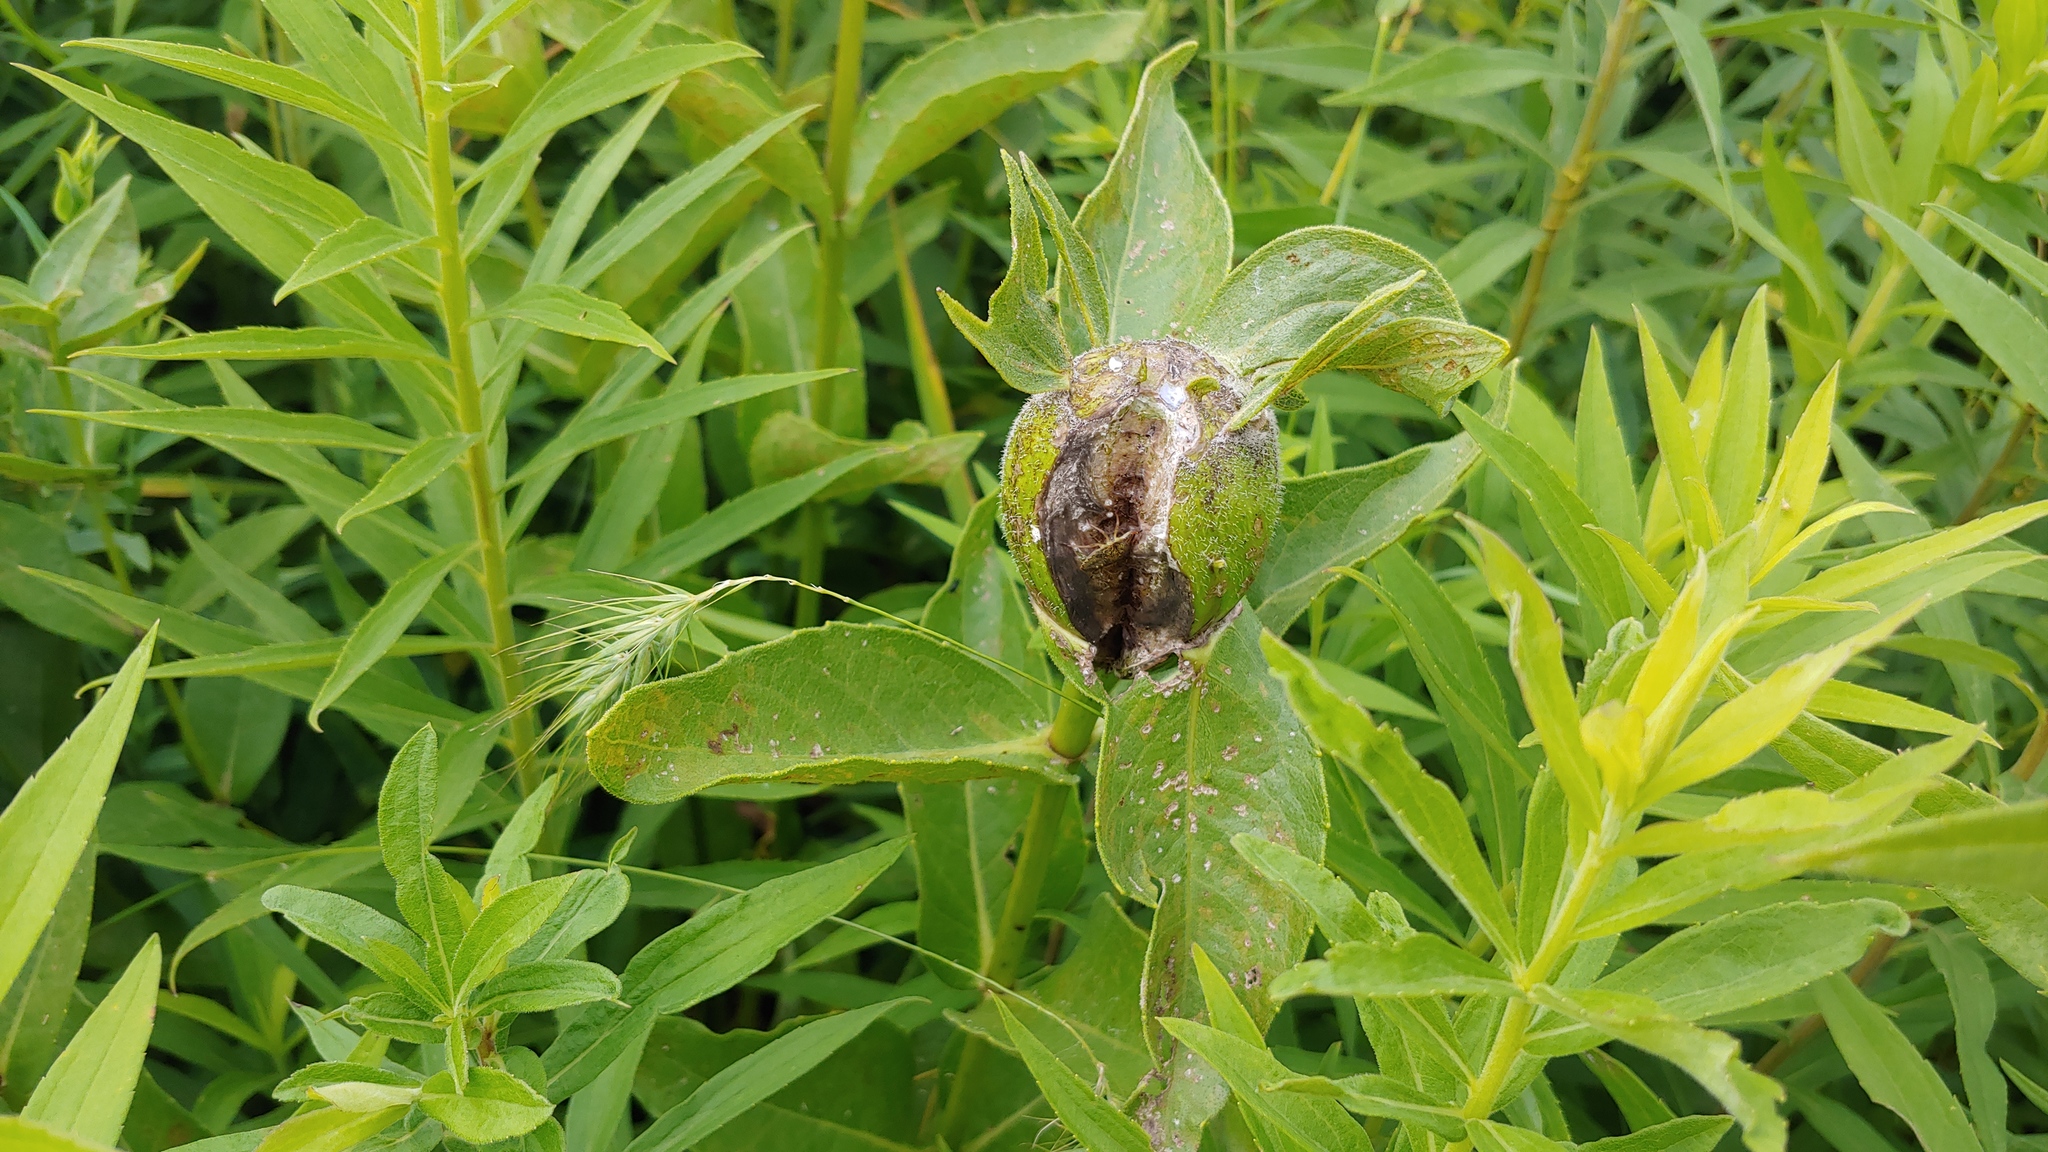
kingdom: Animalia
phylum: Arthropoda
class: Insecta
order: Hymenoptera
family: Cynipidae
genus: Antistrophus
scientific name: Antistrophus silphii
